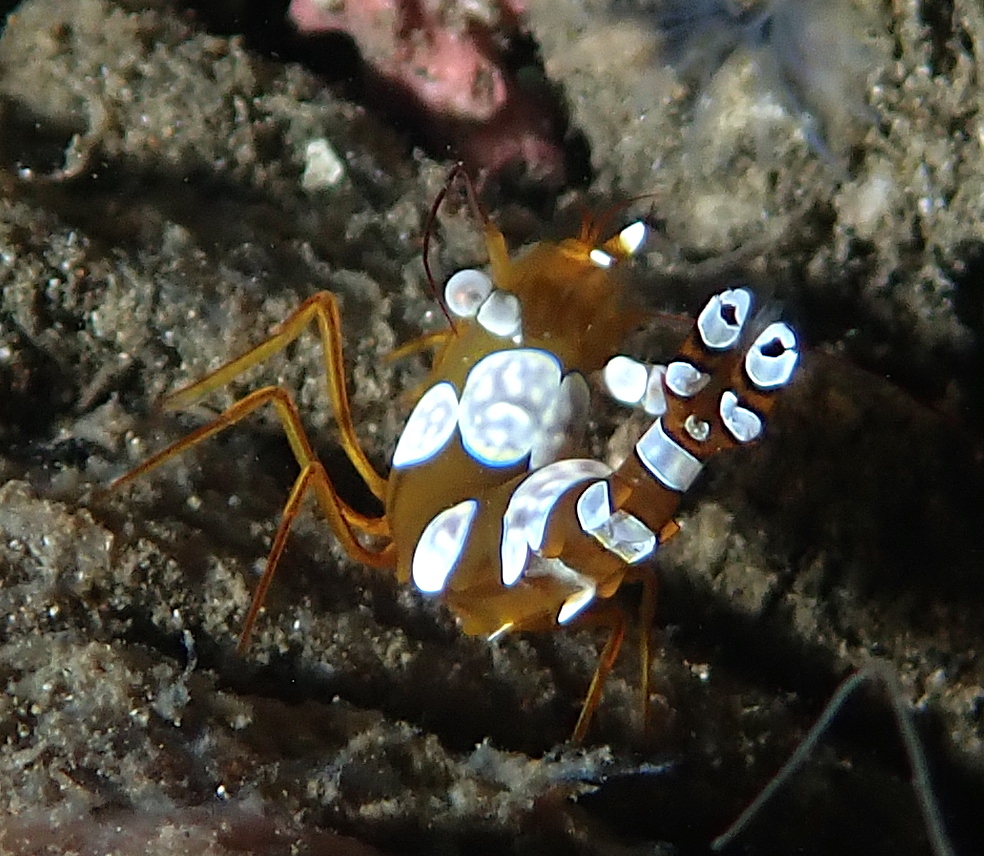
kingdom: Animalia
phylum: Arthropoda
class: Malacostraca
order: Decapoda
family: Thoridae
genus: Thor
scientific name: Thor amboinensis
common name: Squat anemone shrimp
